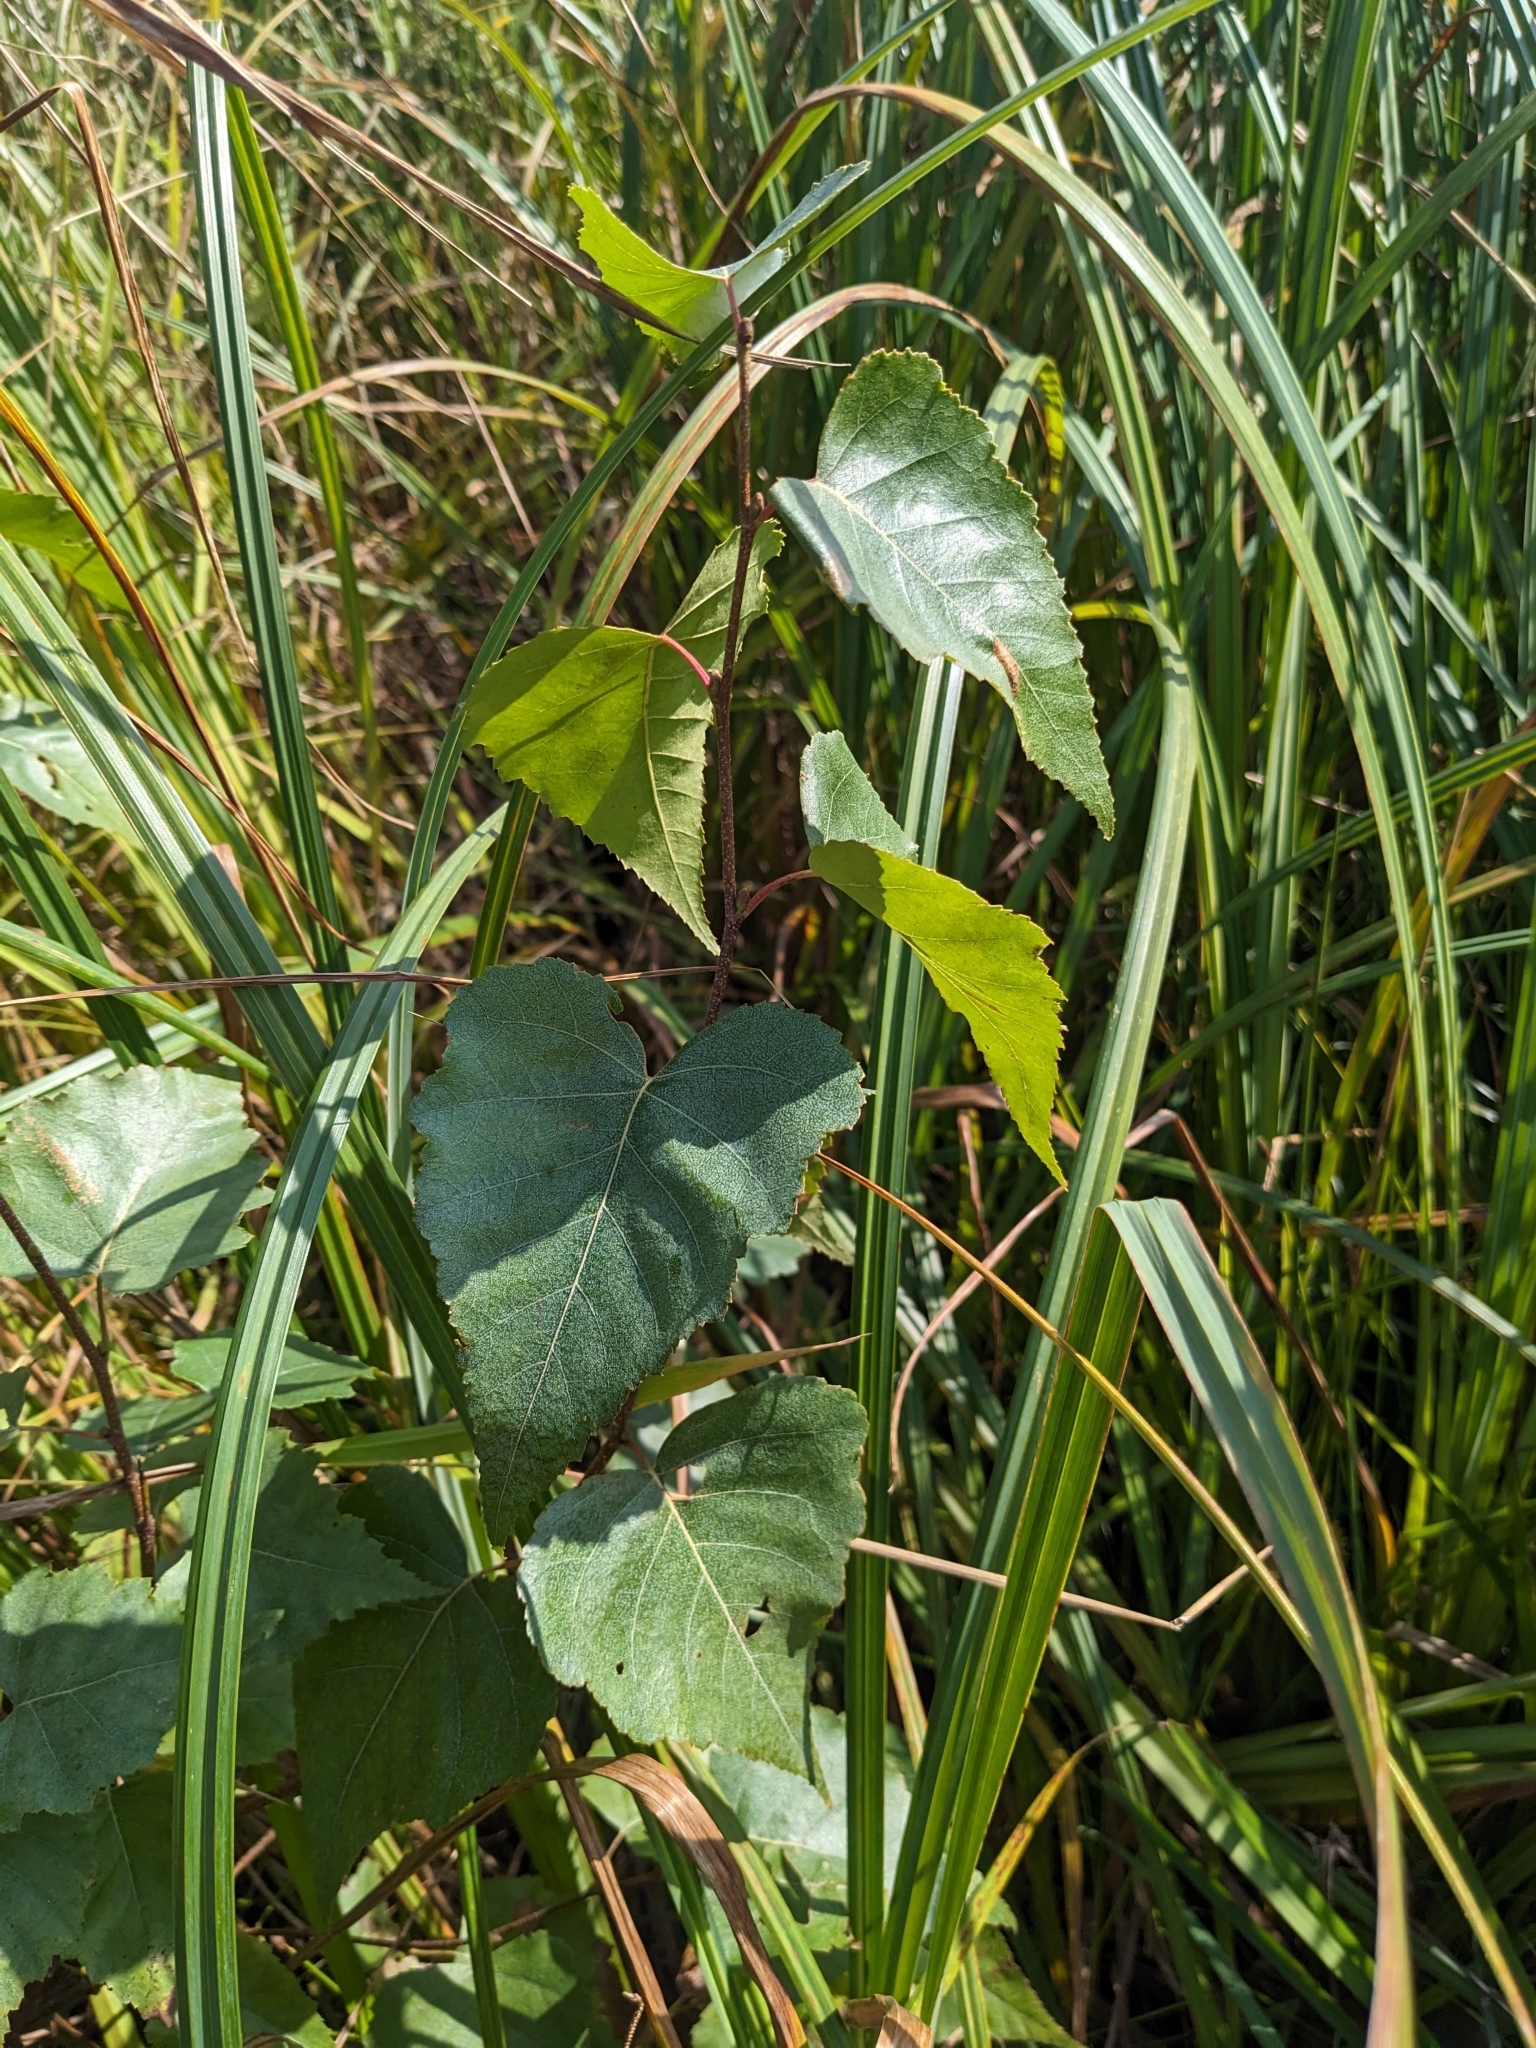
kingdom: Plantae
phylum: Tracheophyta
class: Magnoliopsida
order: Fagales
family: Betulaceae
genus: Betula
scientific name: Betula populifolia
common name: Fire birch
